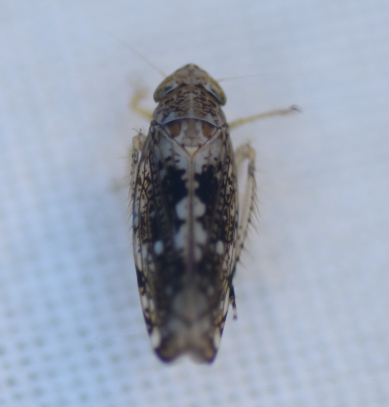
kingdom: Animalia
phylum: Arthropoda
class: Insecta
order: Hemiptera
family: Cicadellidae
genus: Prescottia
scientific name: Prescottia lobata
